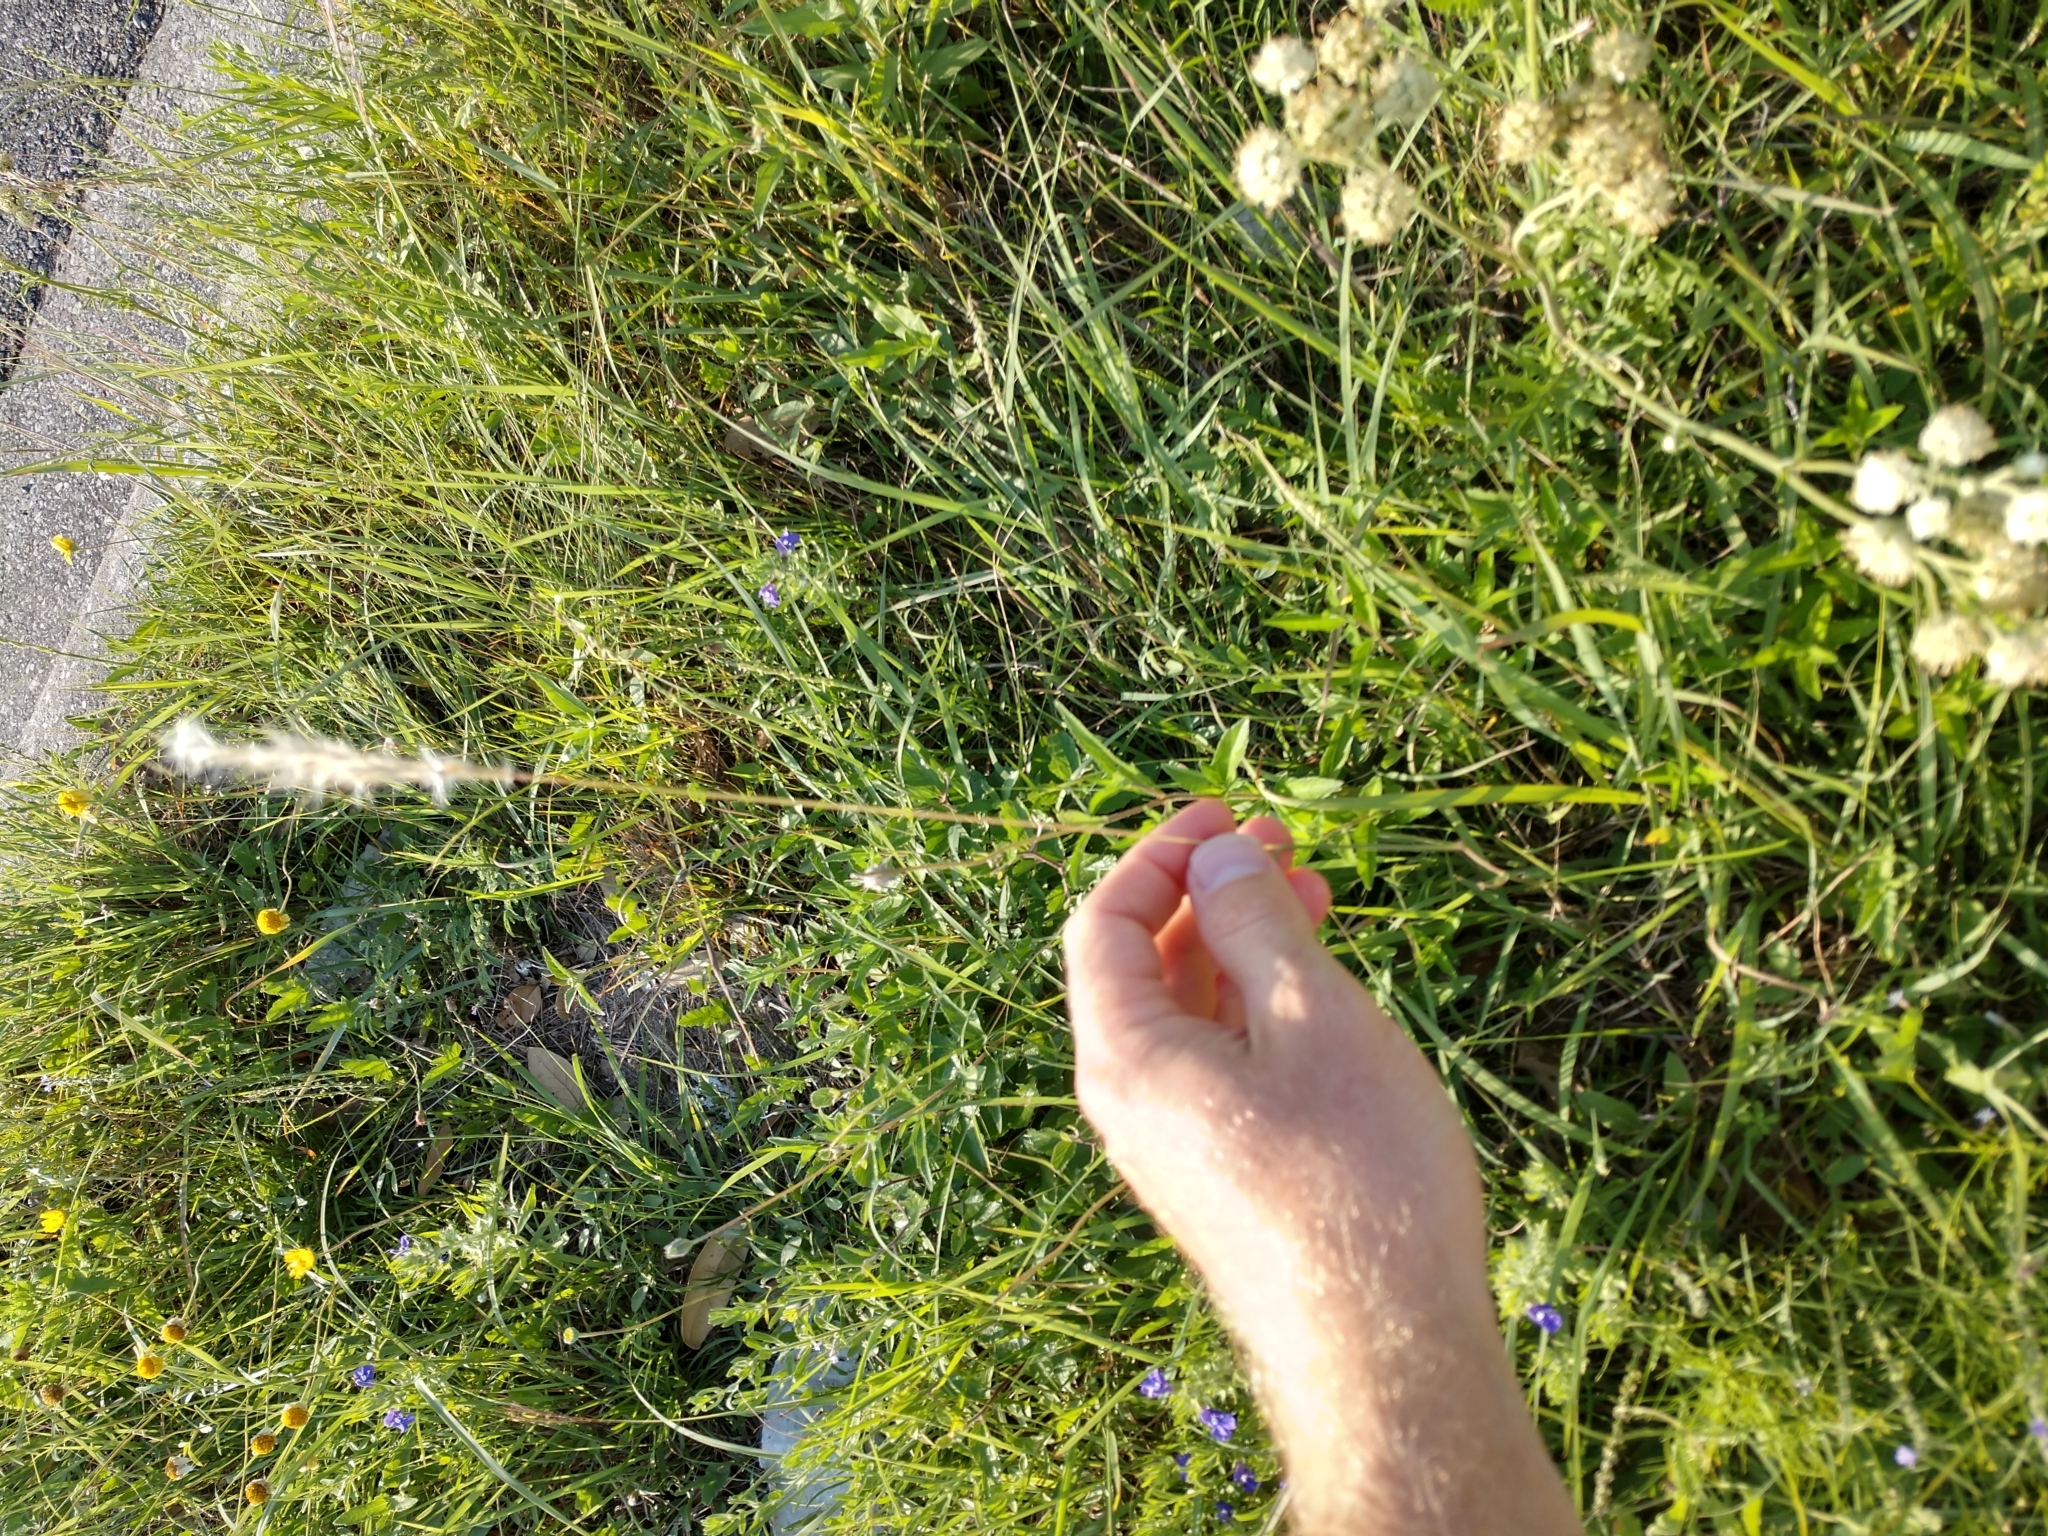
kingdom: Plantae
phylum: Tracheophyta
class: Liliopsida
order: Poales
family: Poaceae
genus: Bothriochloa
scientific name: Bothriochloa barbinodis
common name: Cane bluestem
